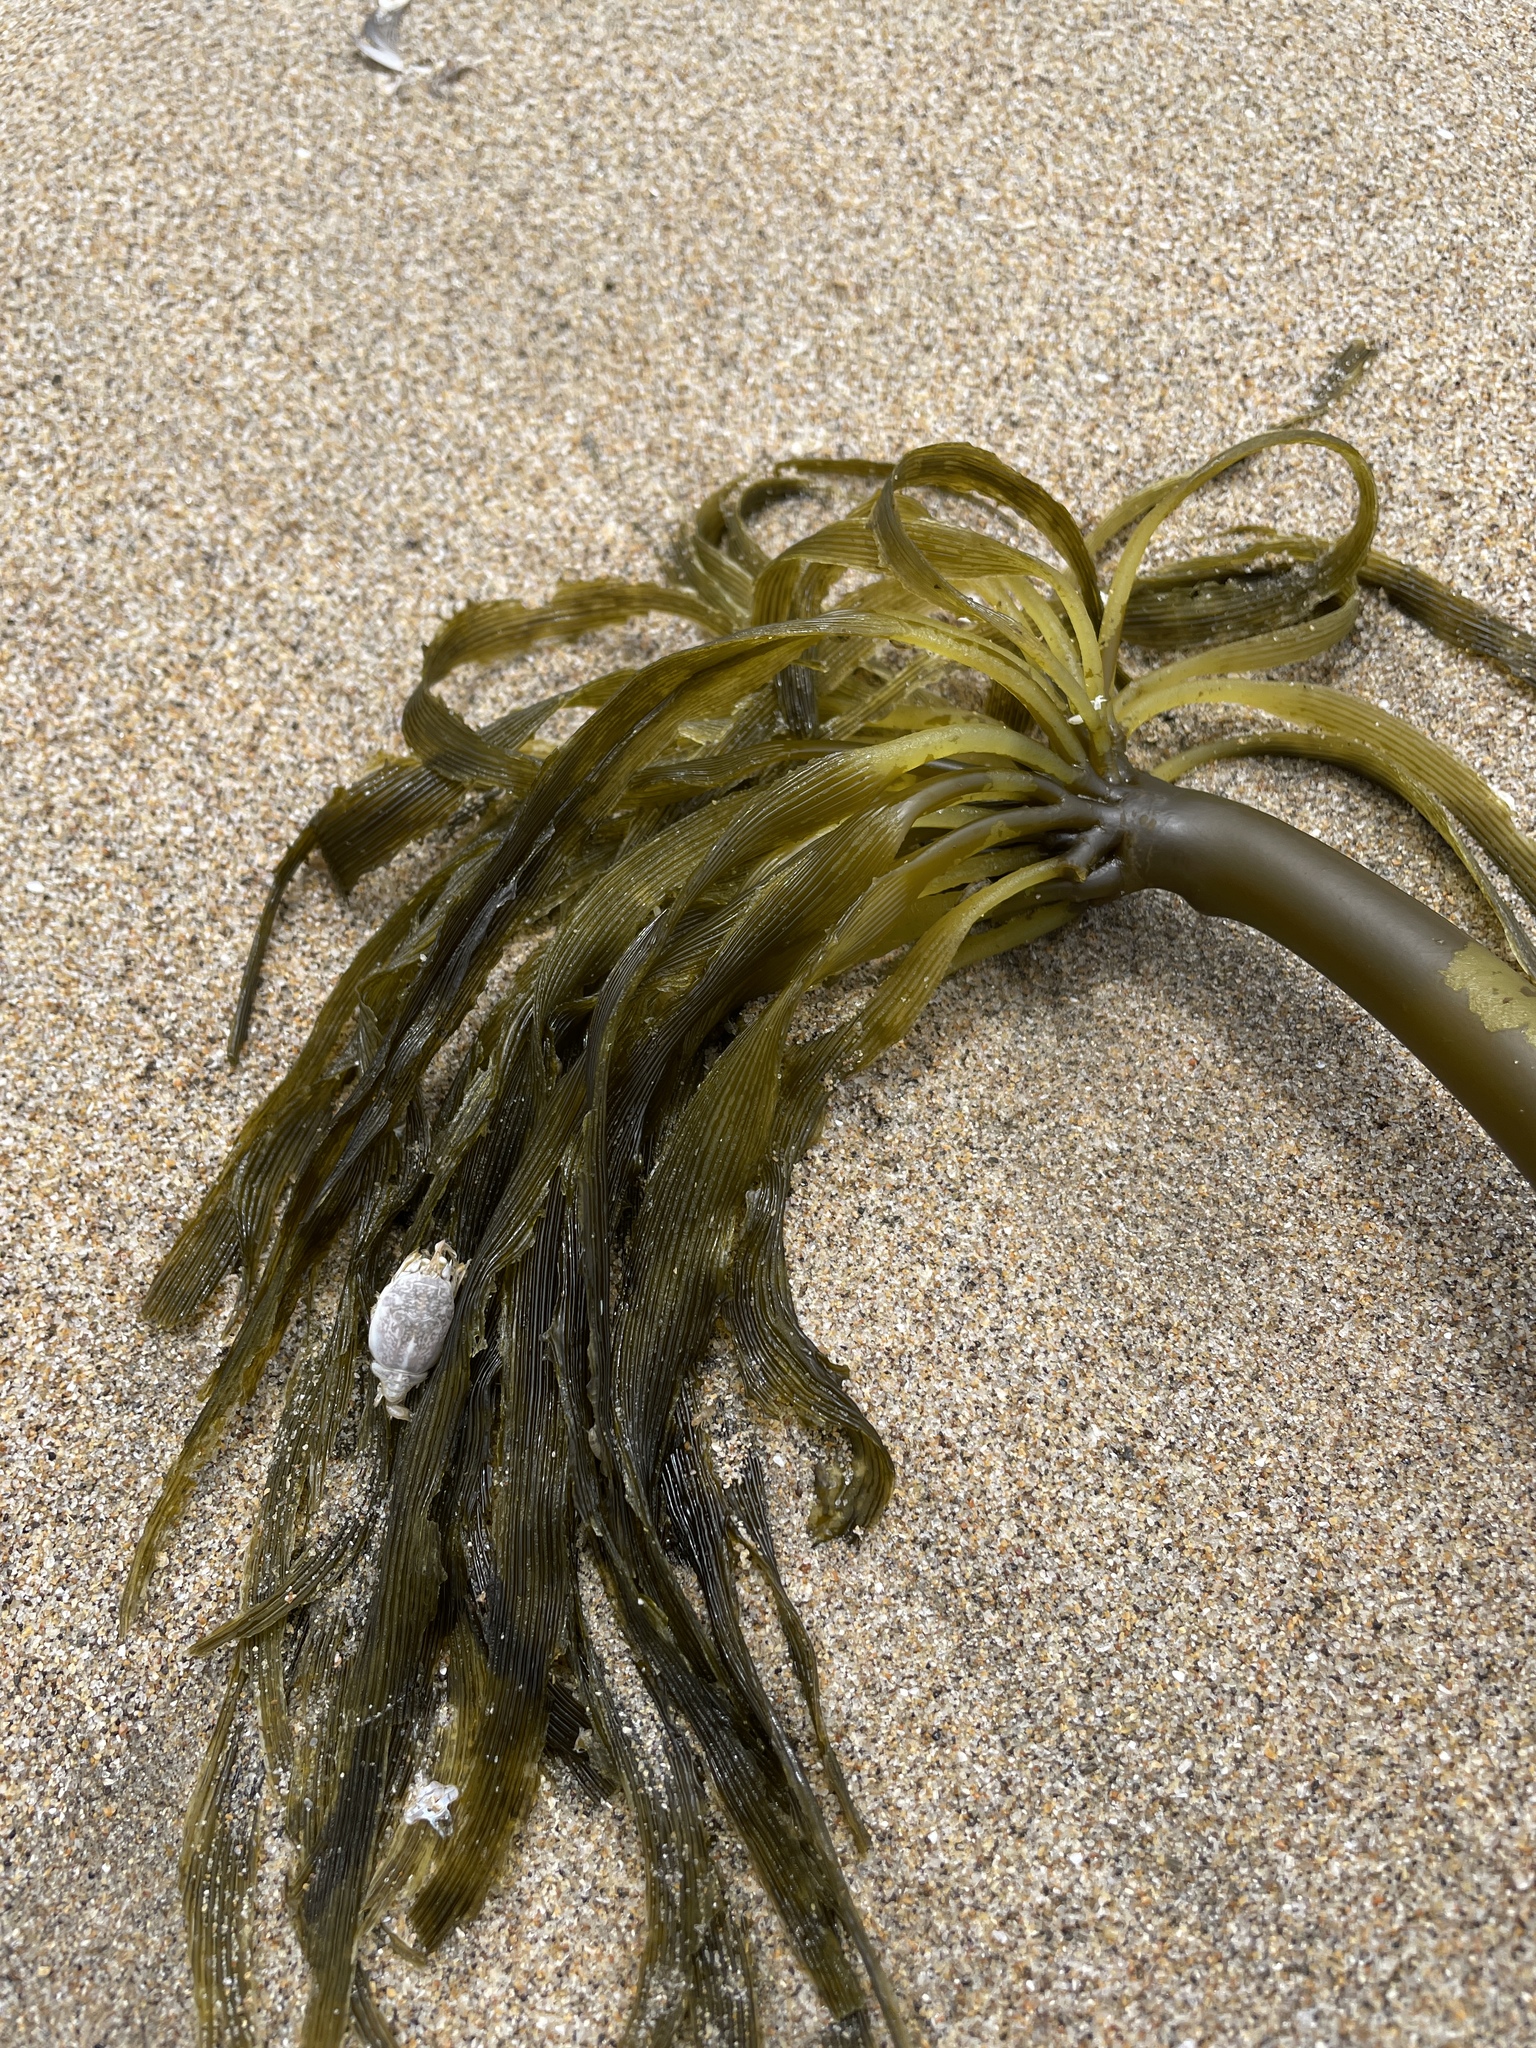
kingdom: Chromista
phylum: Ochrophyta
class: Phaeophyceae
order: Laminariales
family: Laminariaceae
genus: Postelsia
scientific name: Postelsia palmiformis
